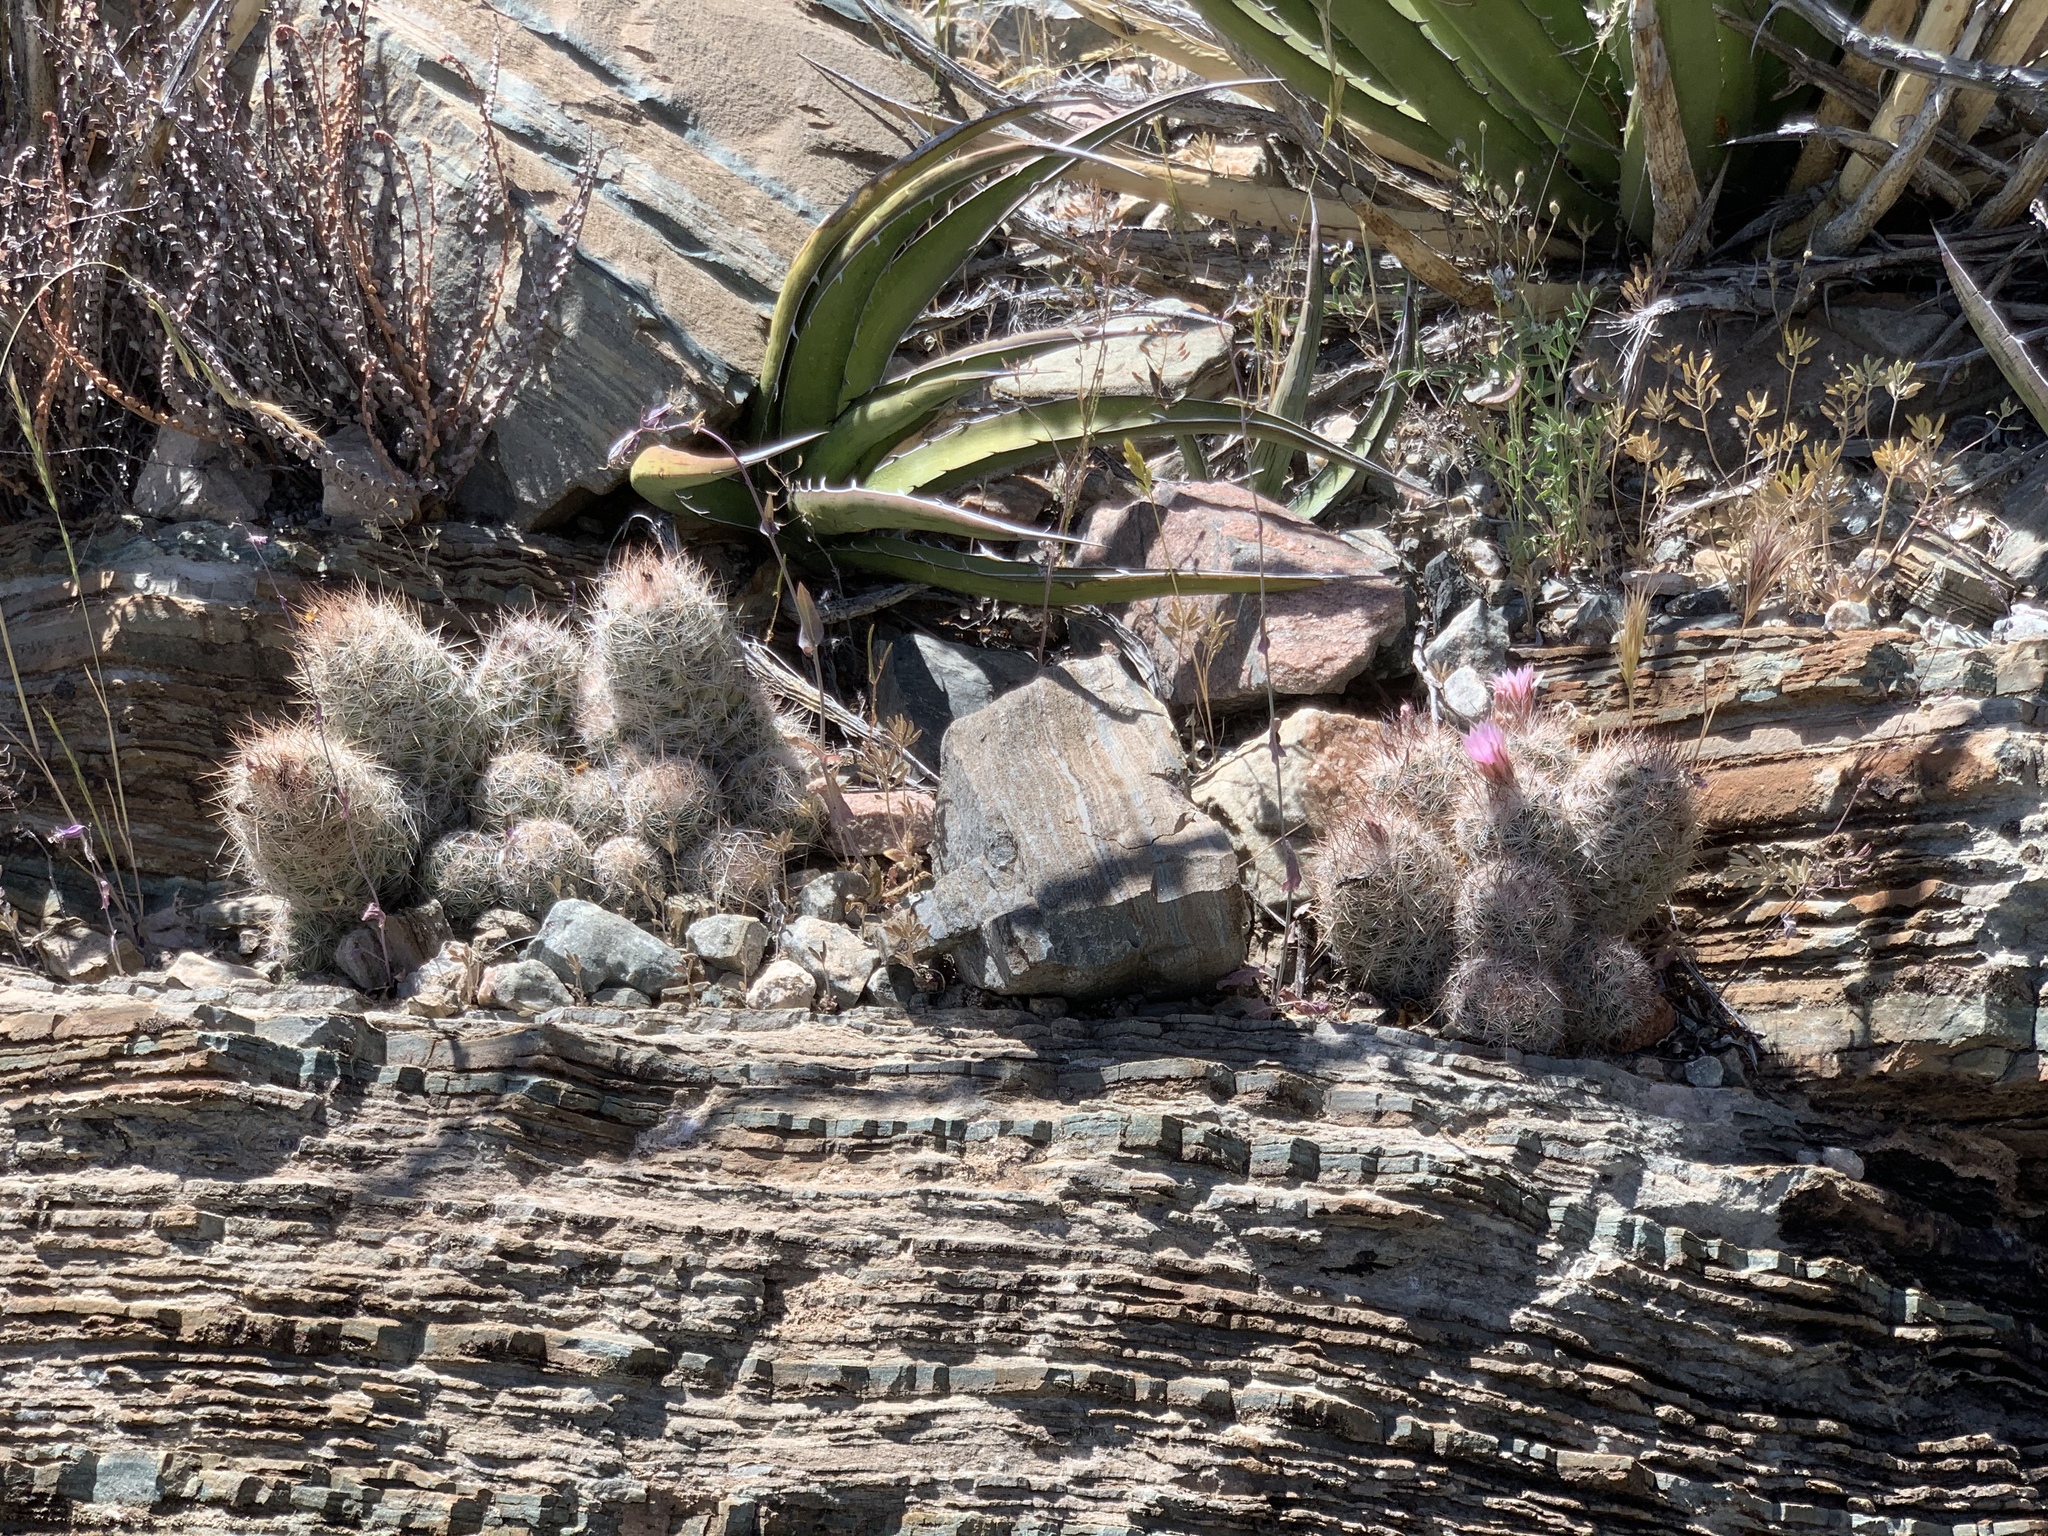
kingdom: Plantae
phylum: Tracheophyta
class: Magnoliopsida
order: Caryophyllales
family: Cactaceae
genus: Pelecyphora
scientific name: Pelecyphora tuberculosa
